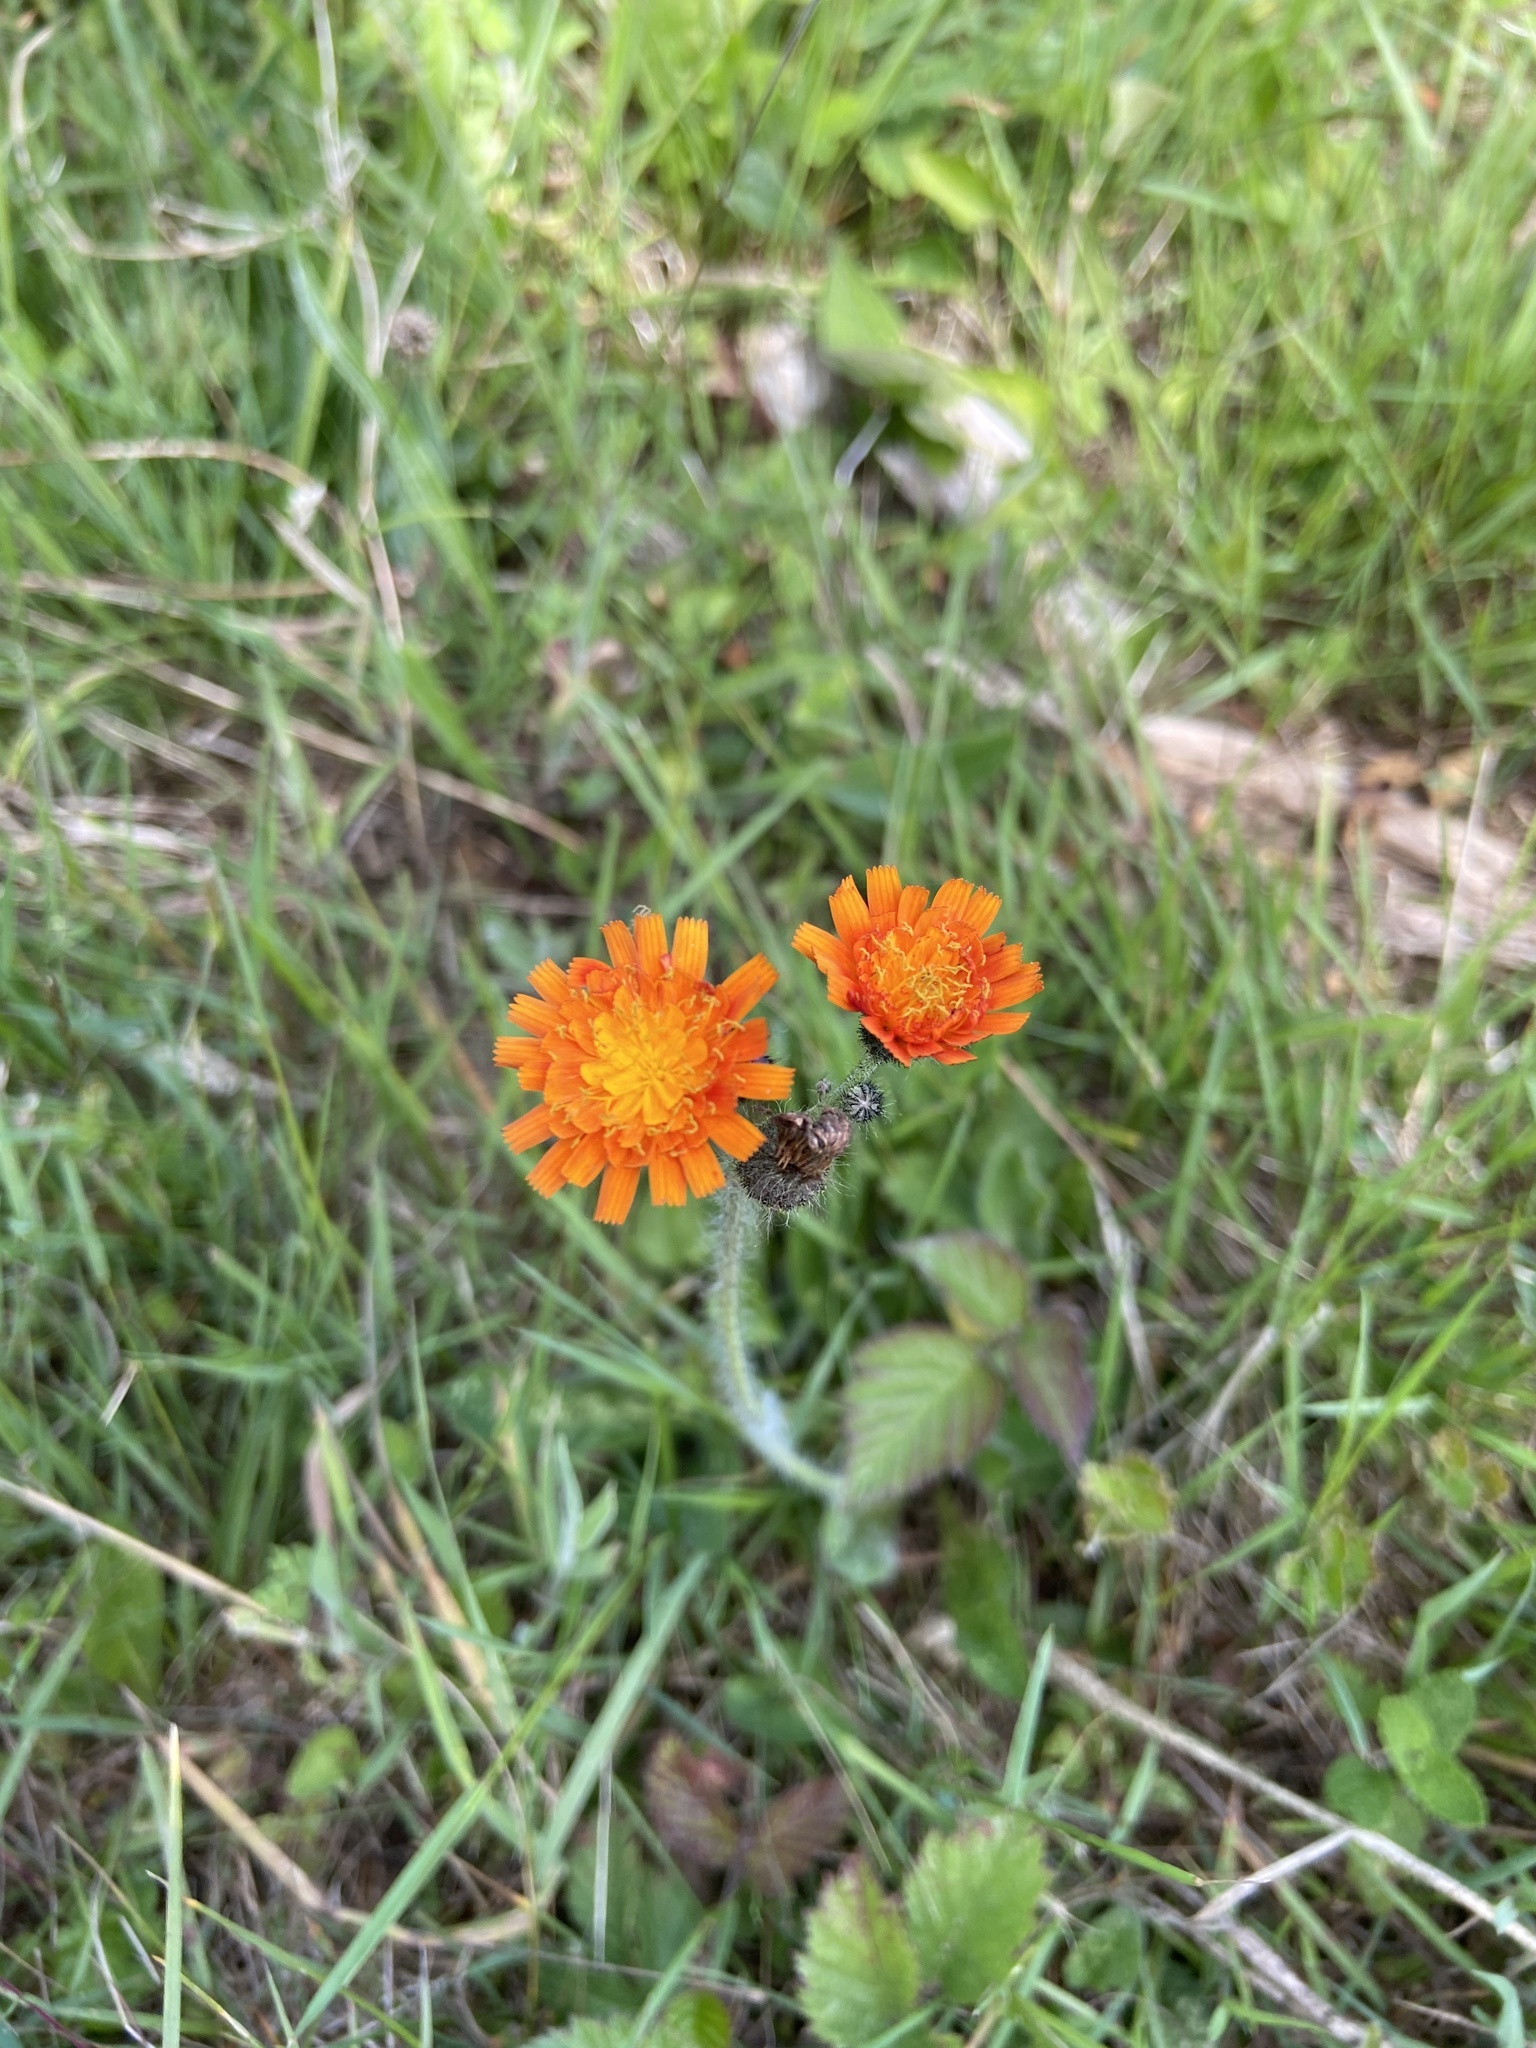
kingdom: Plantae
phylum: Tracheophyta
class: Magnoliopsida
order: Asterales
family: Asteraceae
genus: Pilosella
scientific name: Pilosella aurantiaca
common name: Fox-and-cubs
